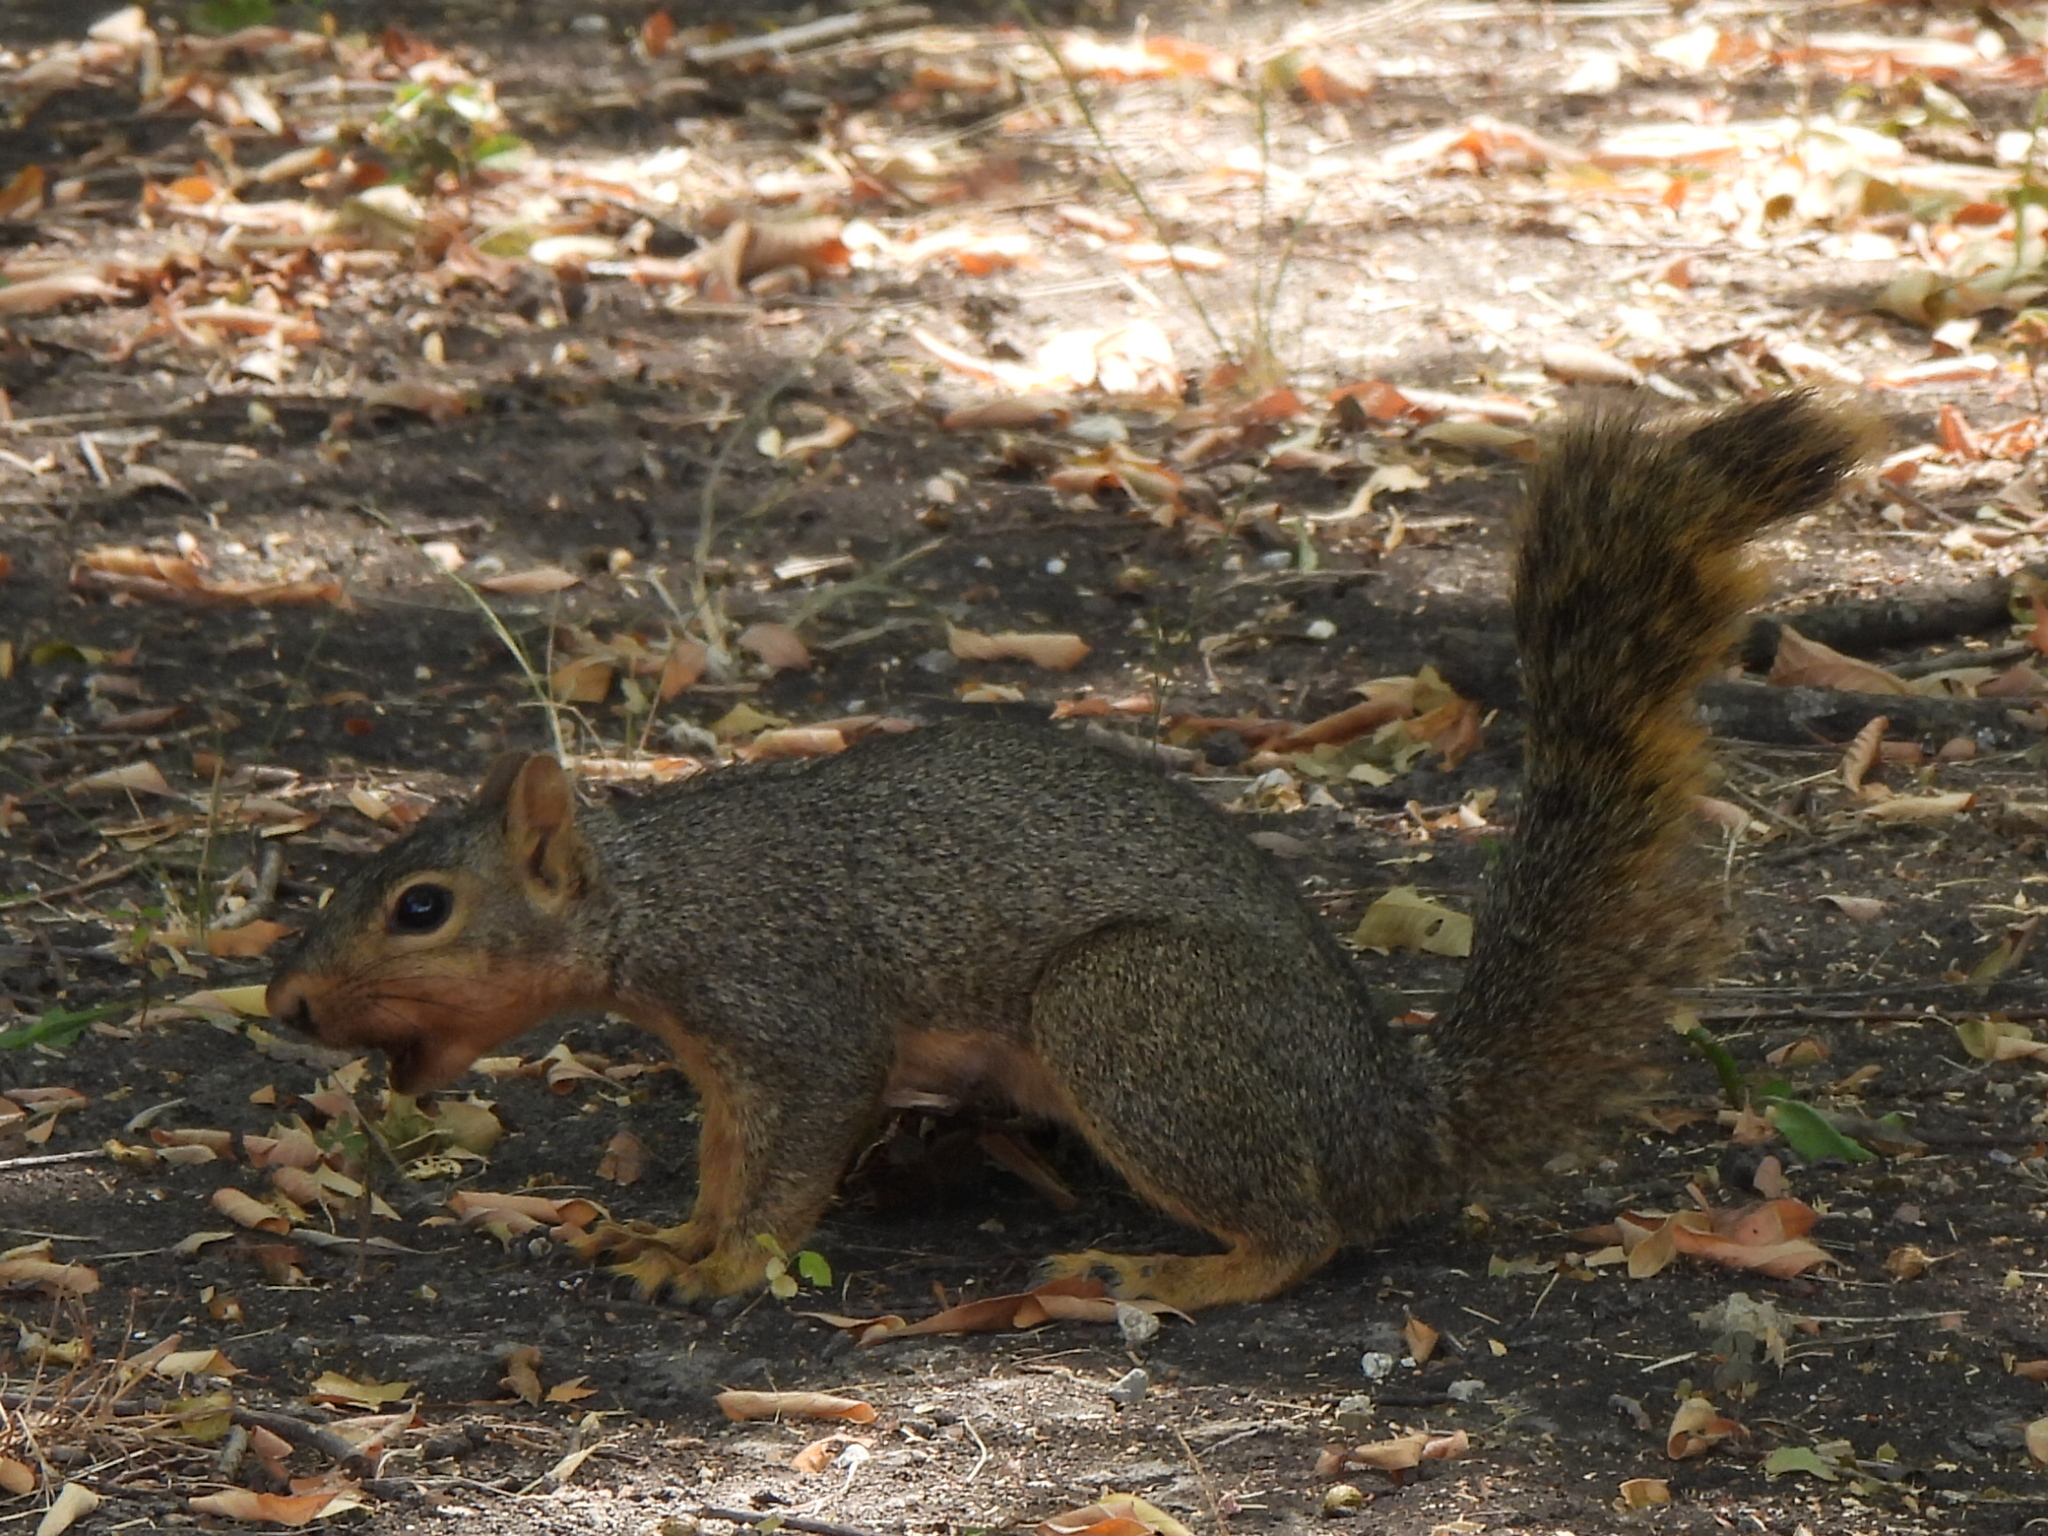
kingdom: Animalia
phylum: Chordata
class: Mammalia
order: Rodentia
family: Sciuridae
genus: Sciurus
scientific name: Sciurus niger
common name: Fox squirrel
